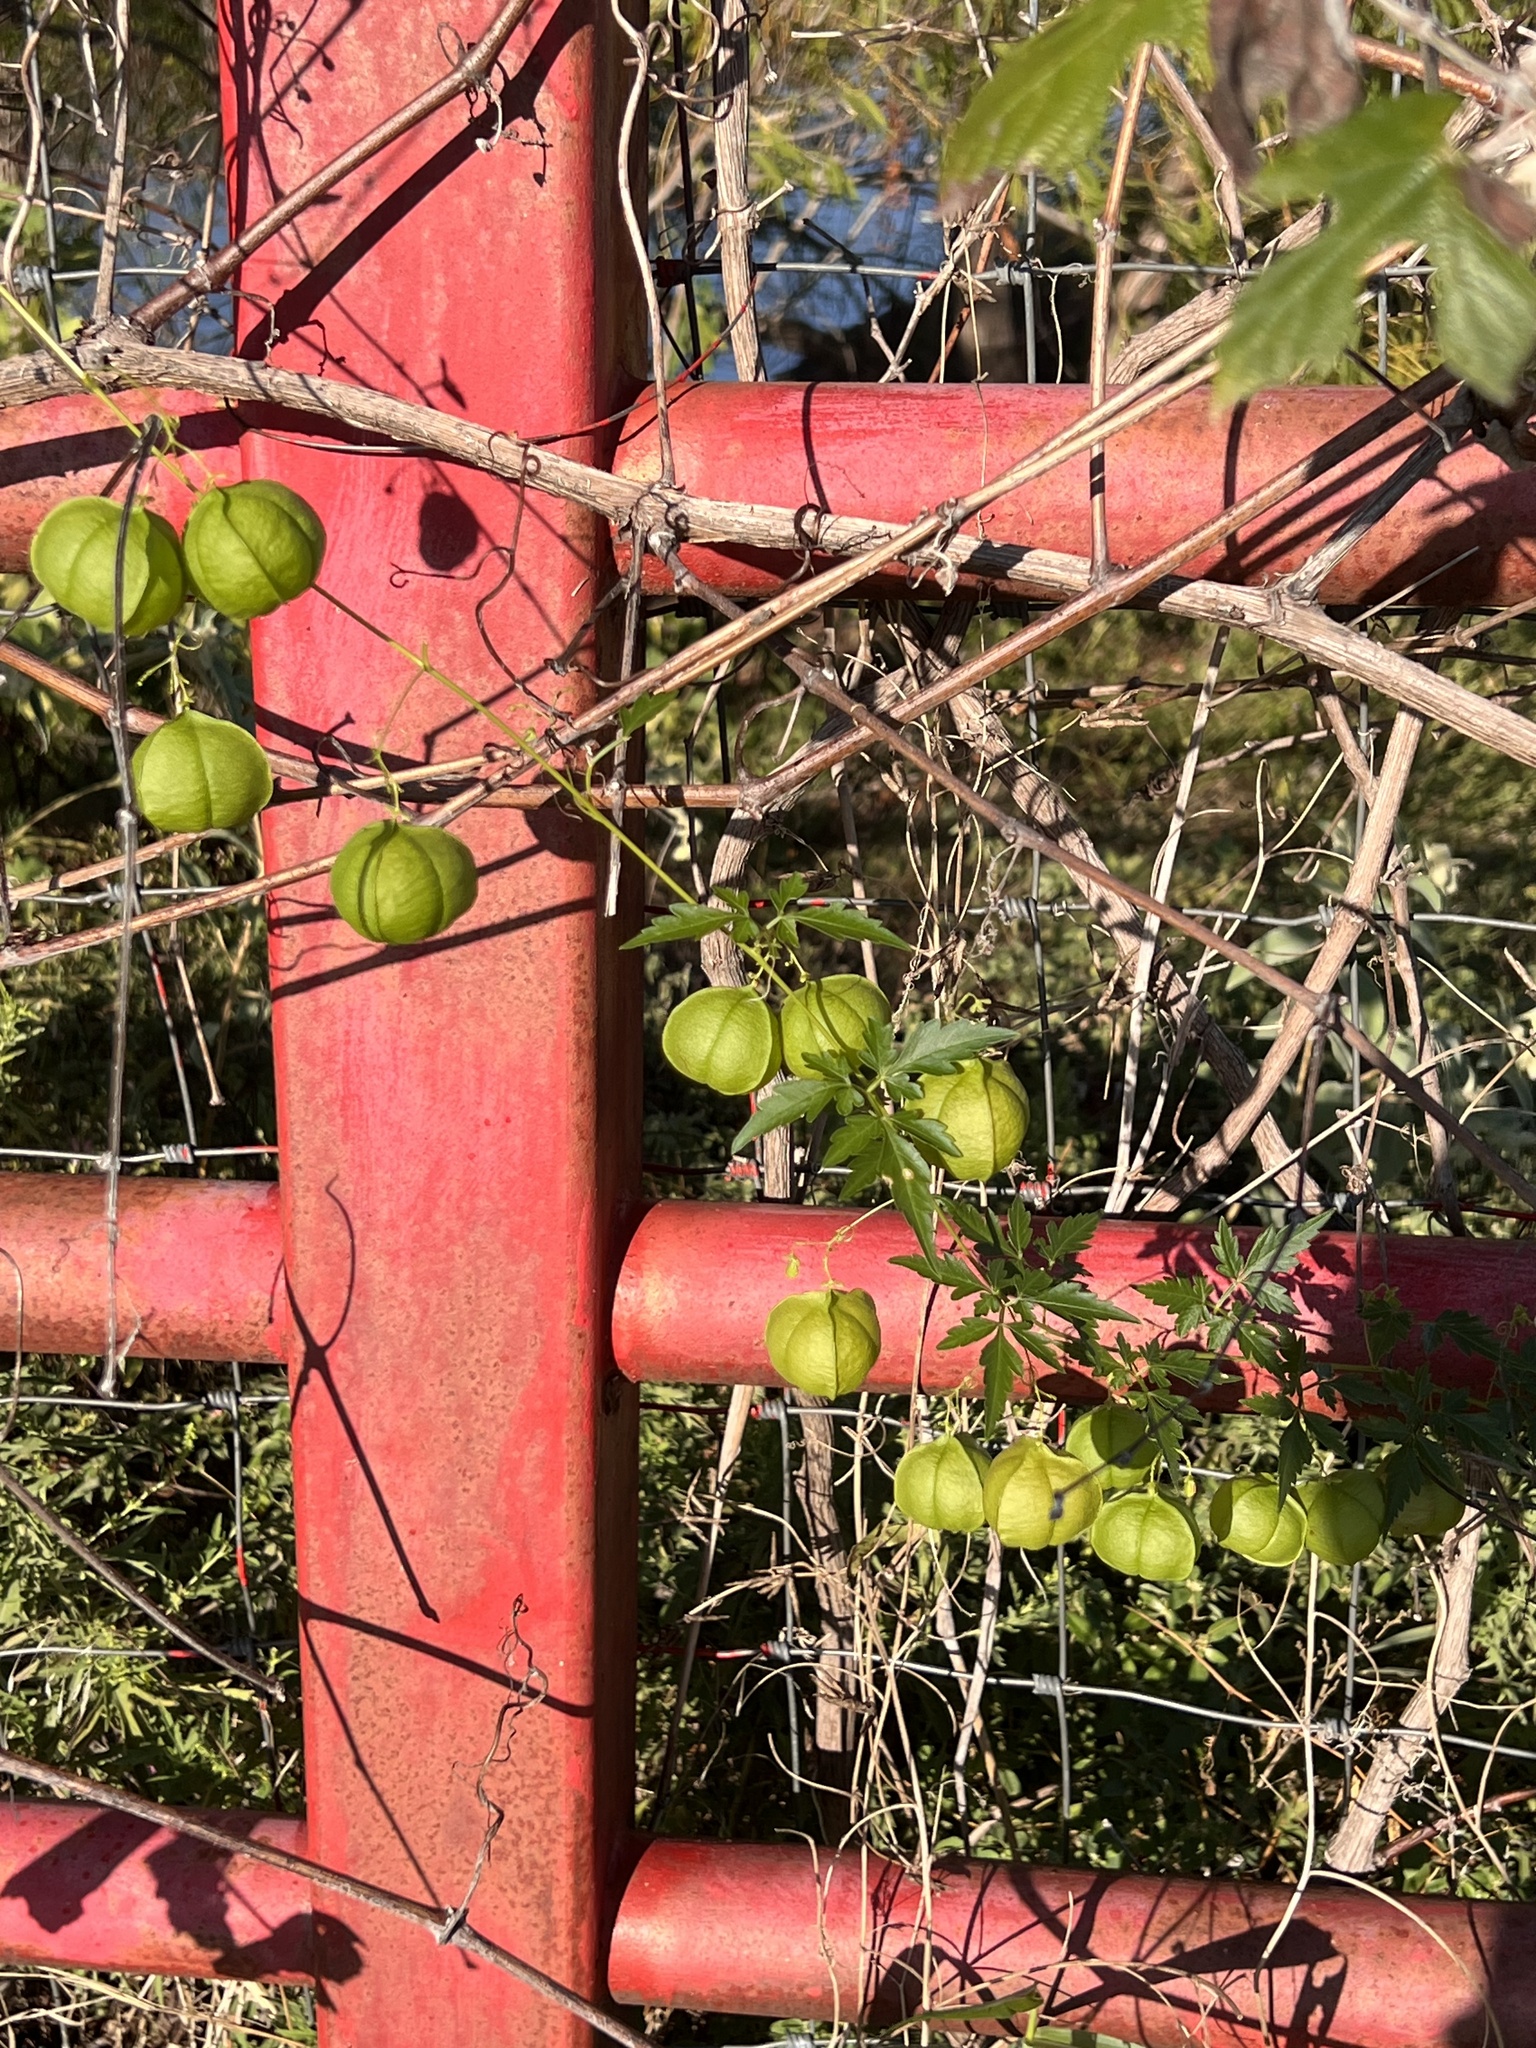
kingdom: Plantae
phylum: Tracheophyta
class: Magnoliopsida
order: Sapindales
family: Sapindaceae
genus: Cardiospermum
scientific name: Cardiospermum halicacabum
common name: Balloon vine
